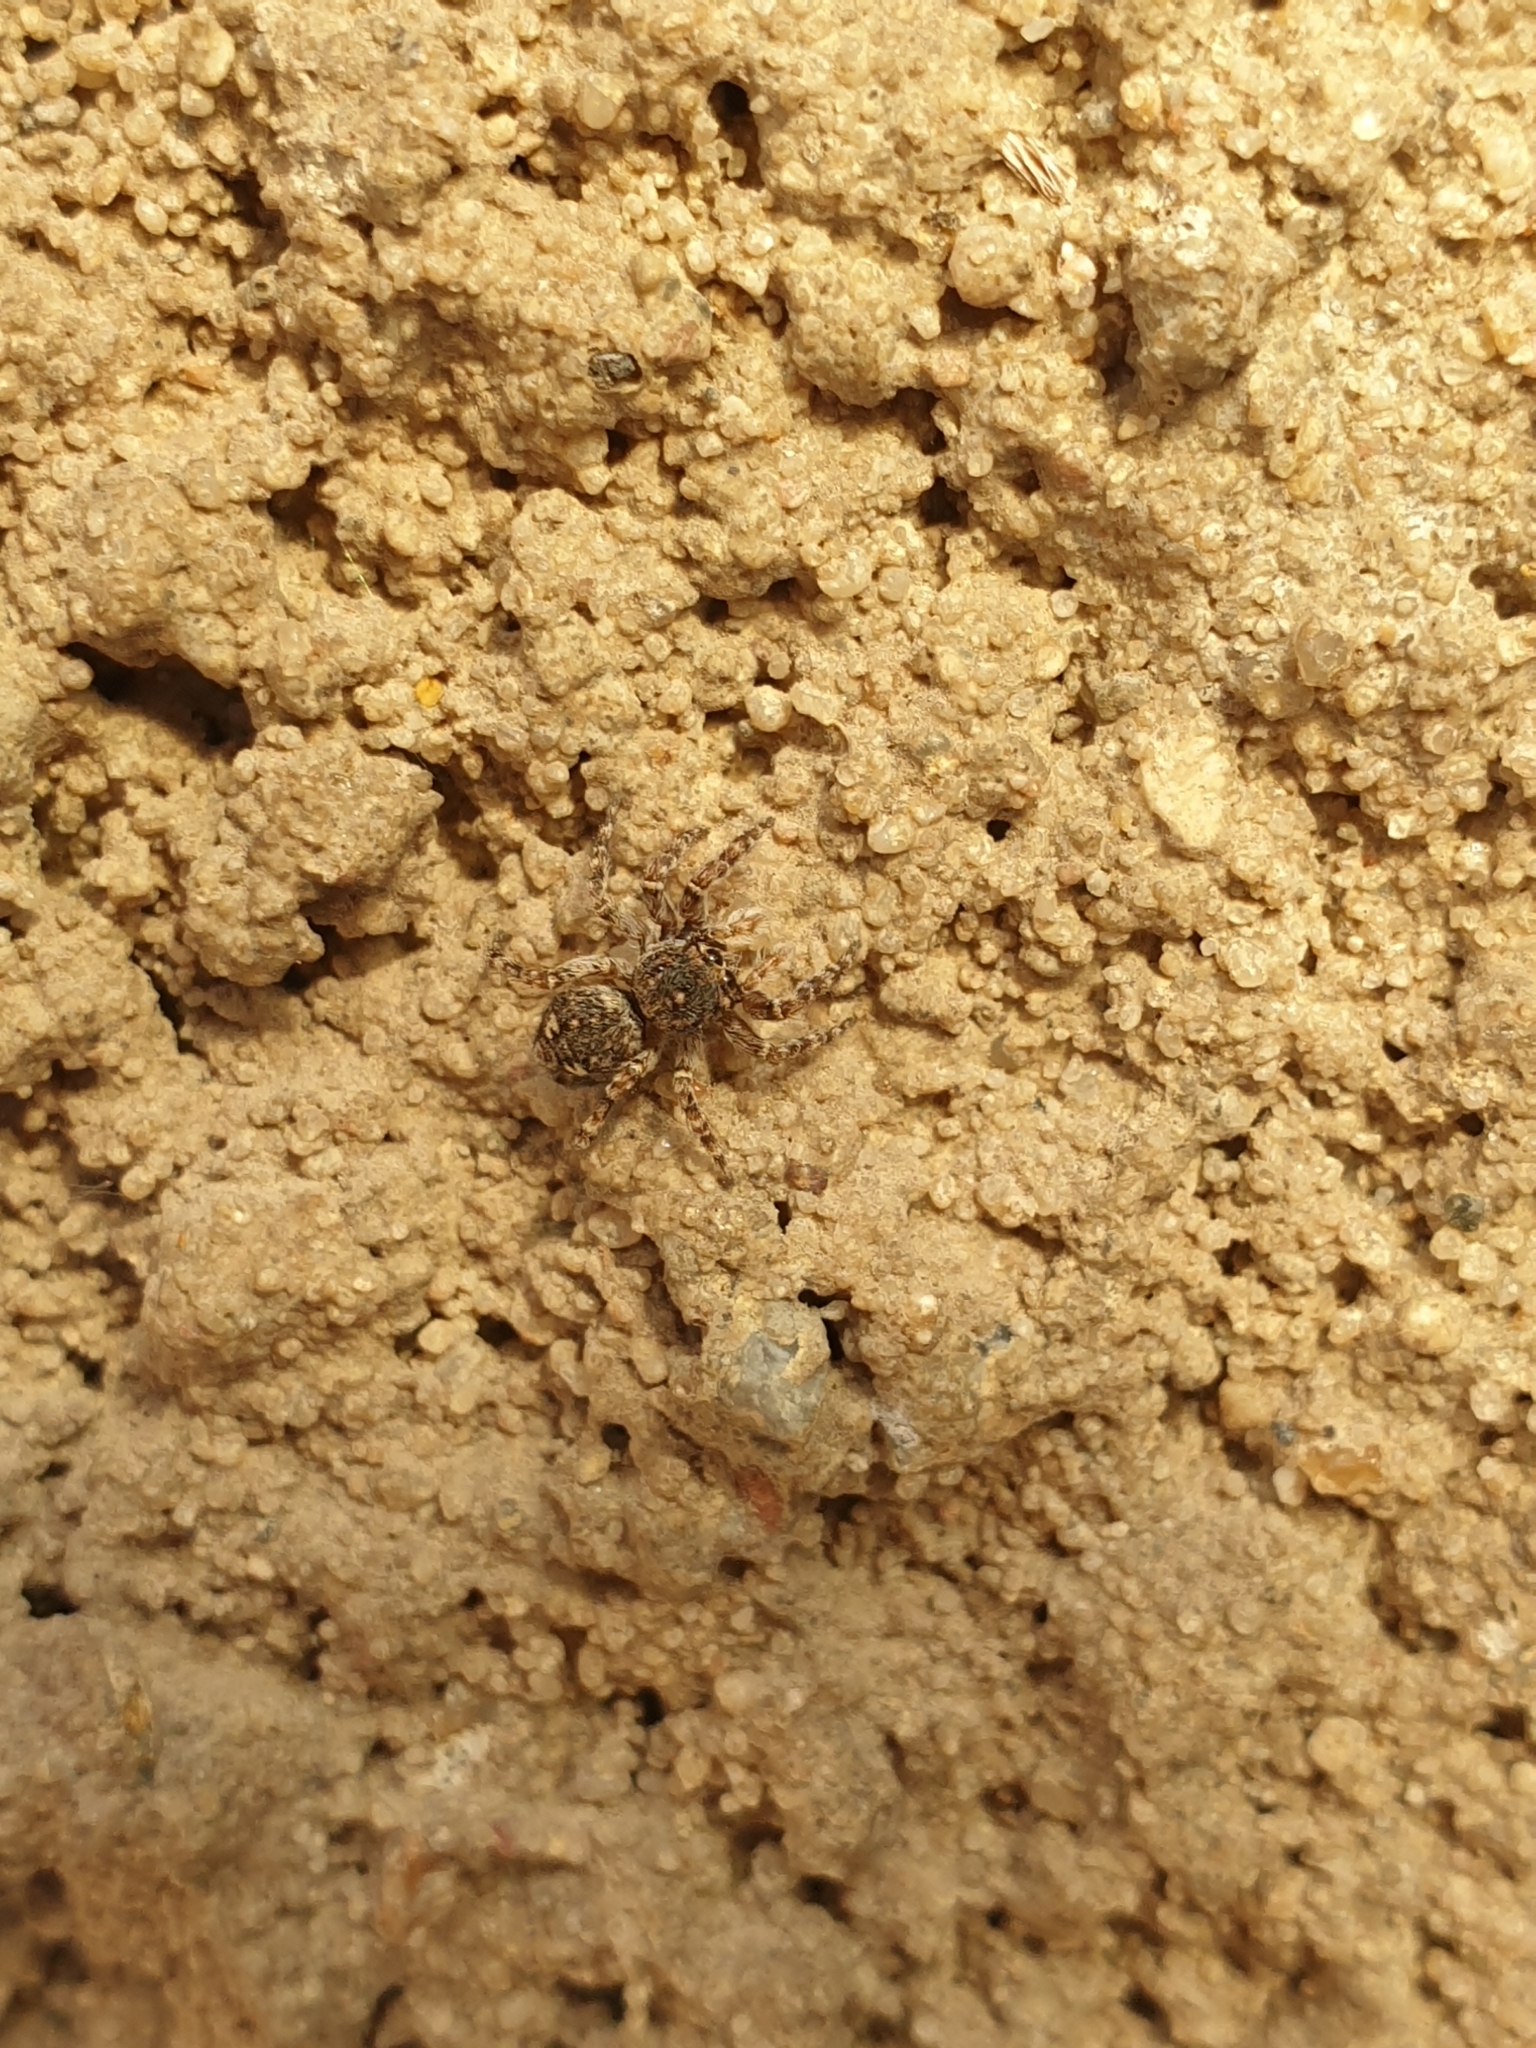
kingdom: Animalia
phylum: Arthropoda
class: Arachnida
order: Araneae
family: Salticidae
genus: Attulus
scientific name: Attulus pubescens
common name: Jumping spider
